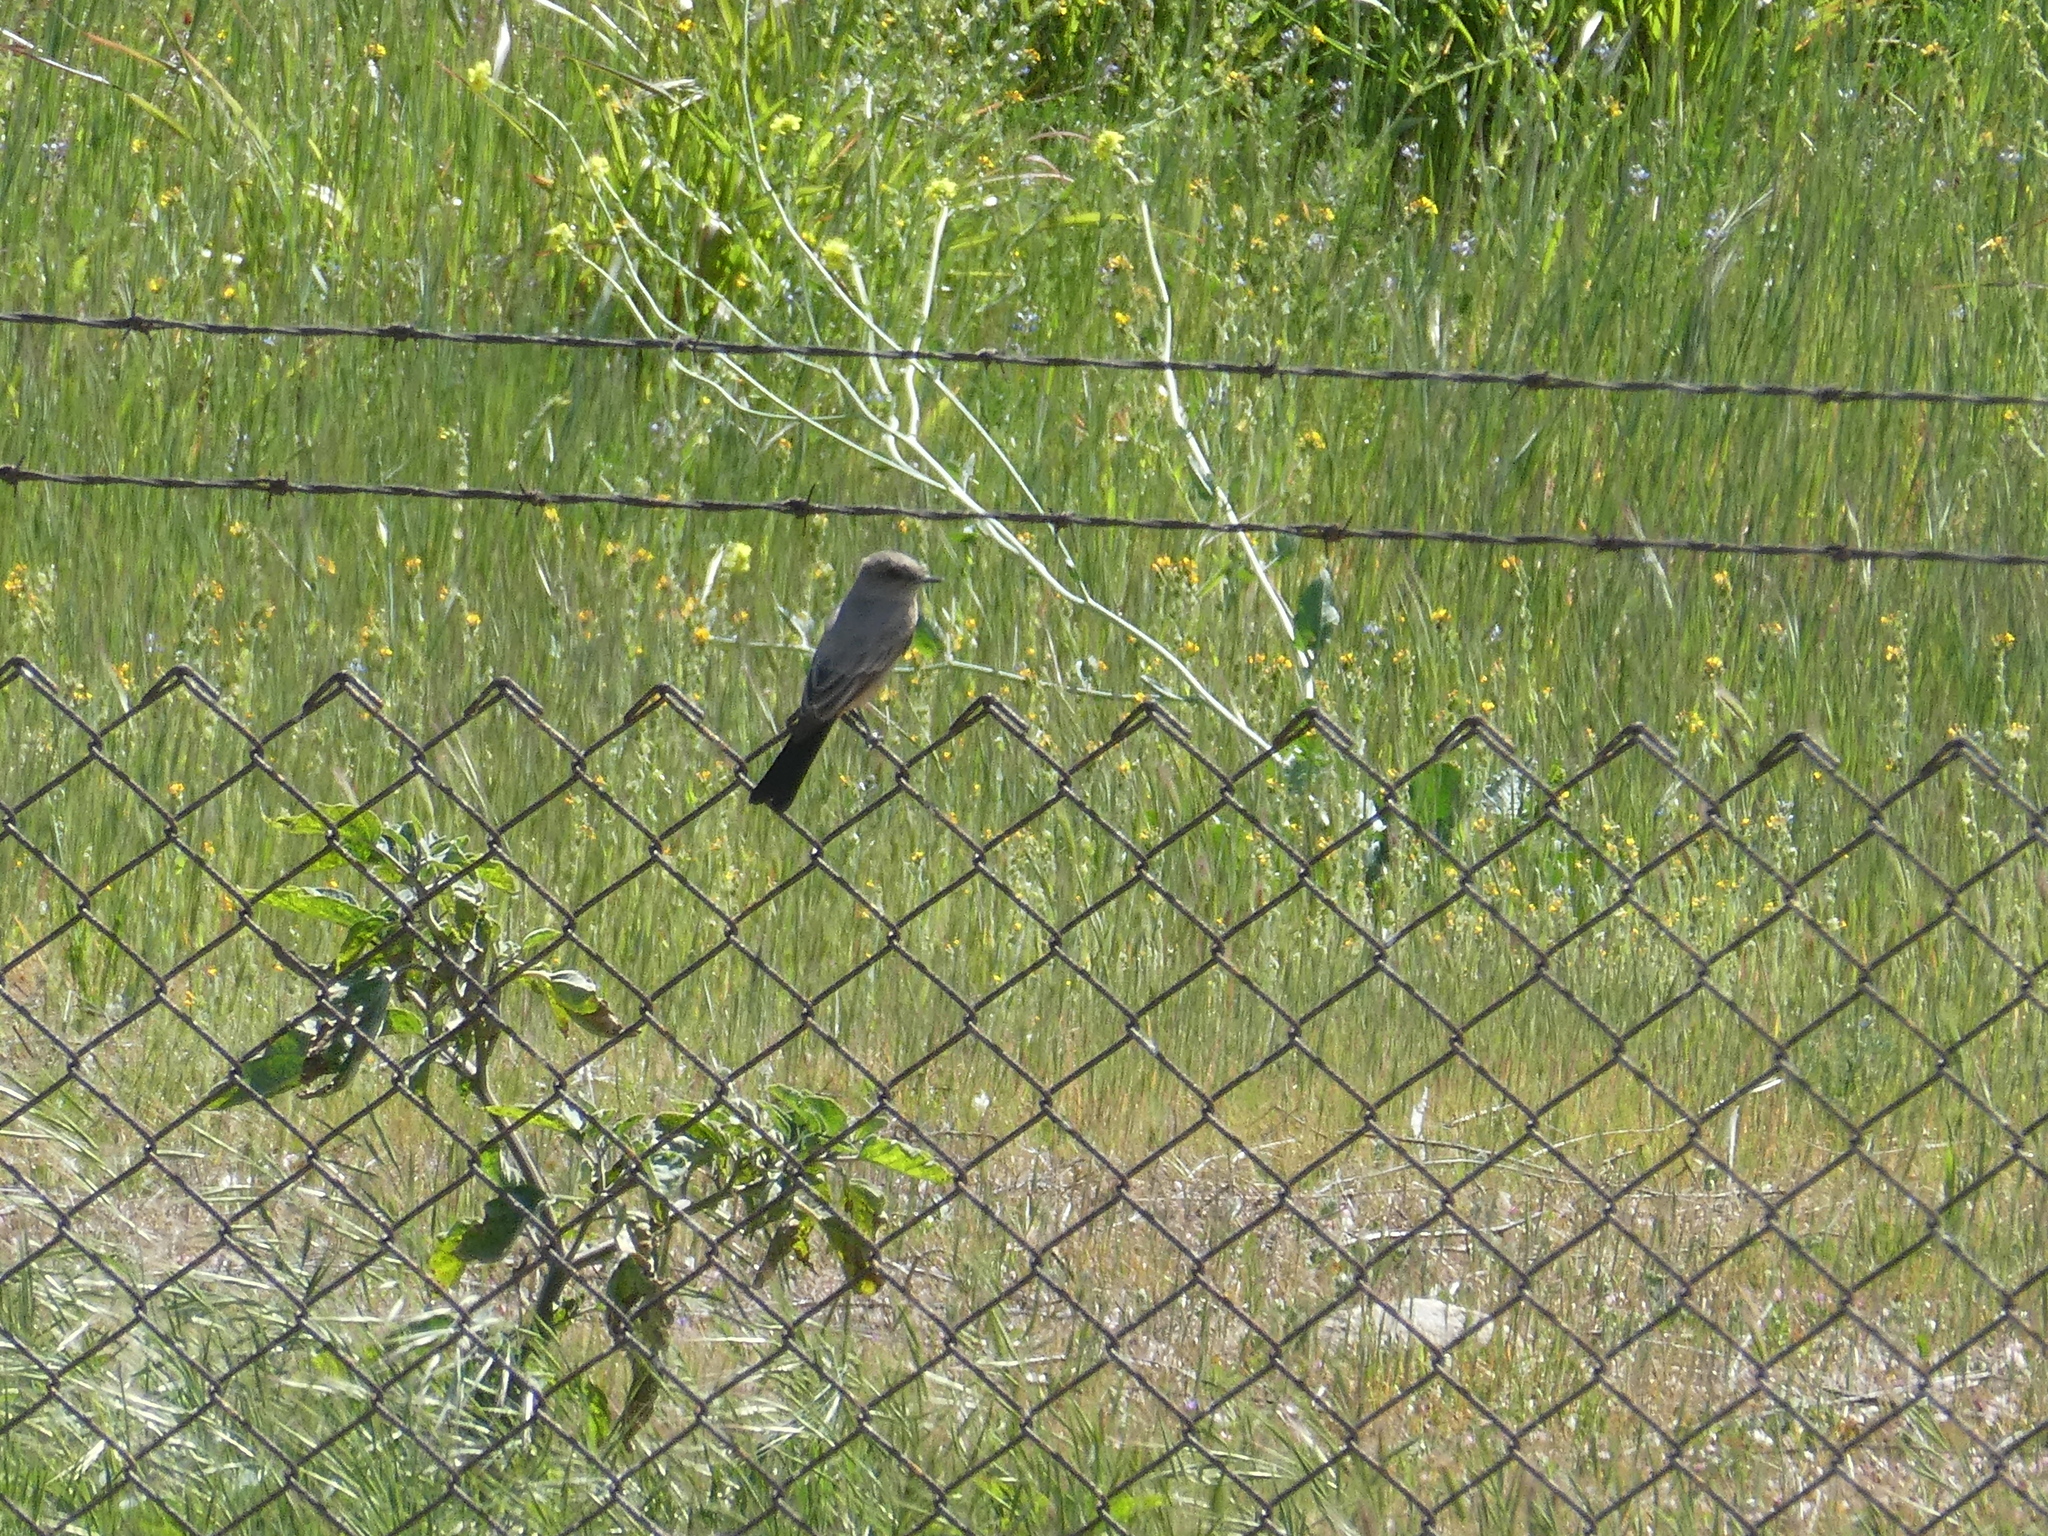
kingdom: Animalia
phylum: Chordata
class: Aves
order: Passeriformes
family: Tyrannidae
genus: Sayornis
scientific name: Sayornis saya
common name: Say's phoebe
